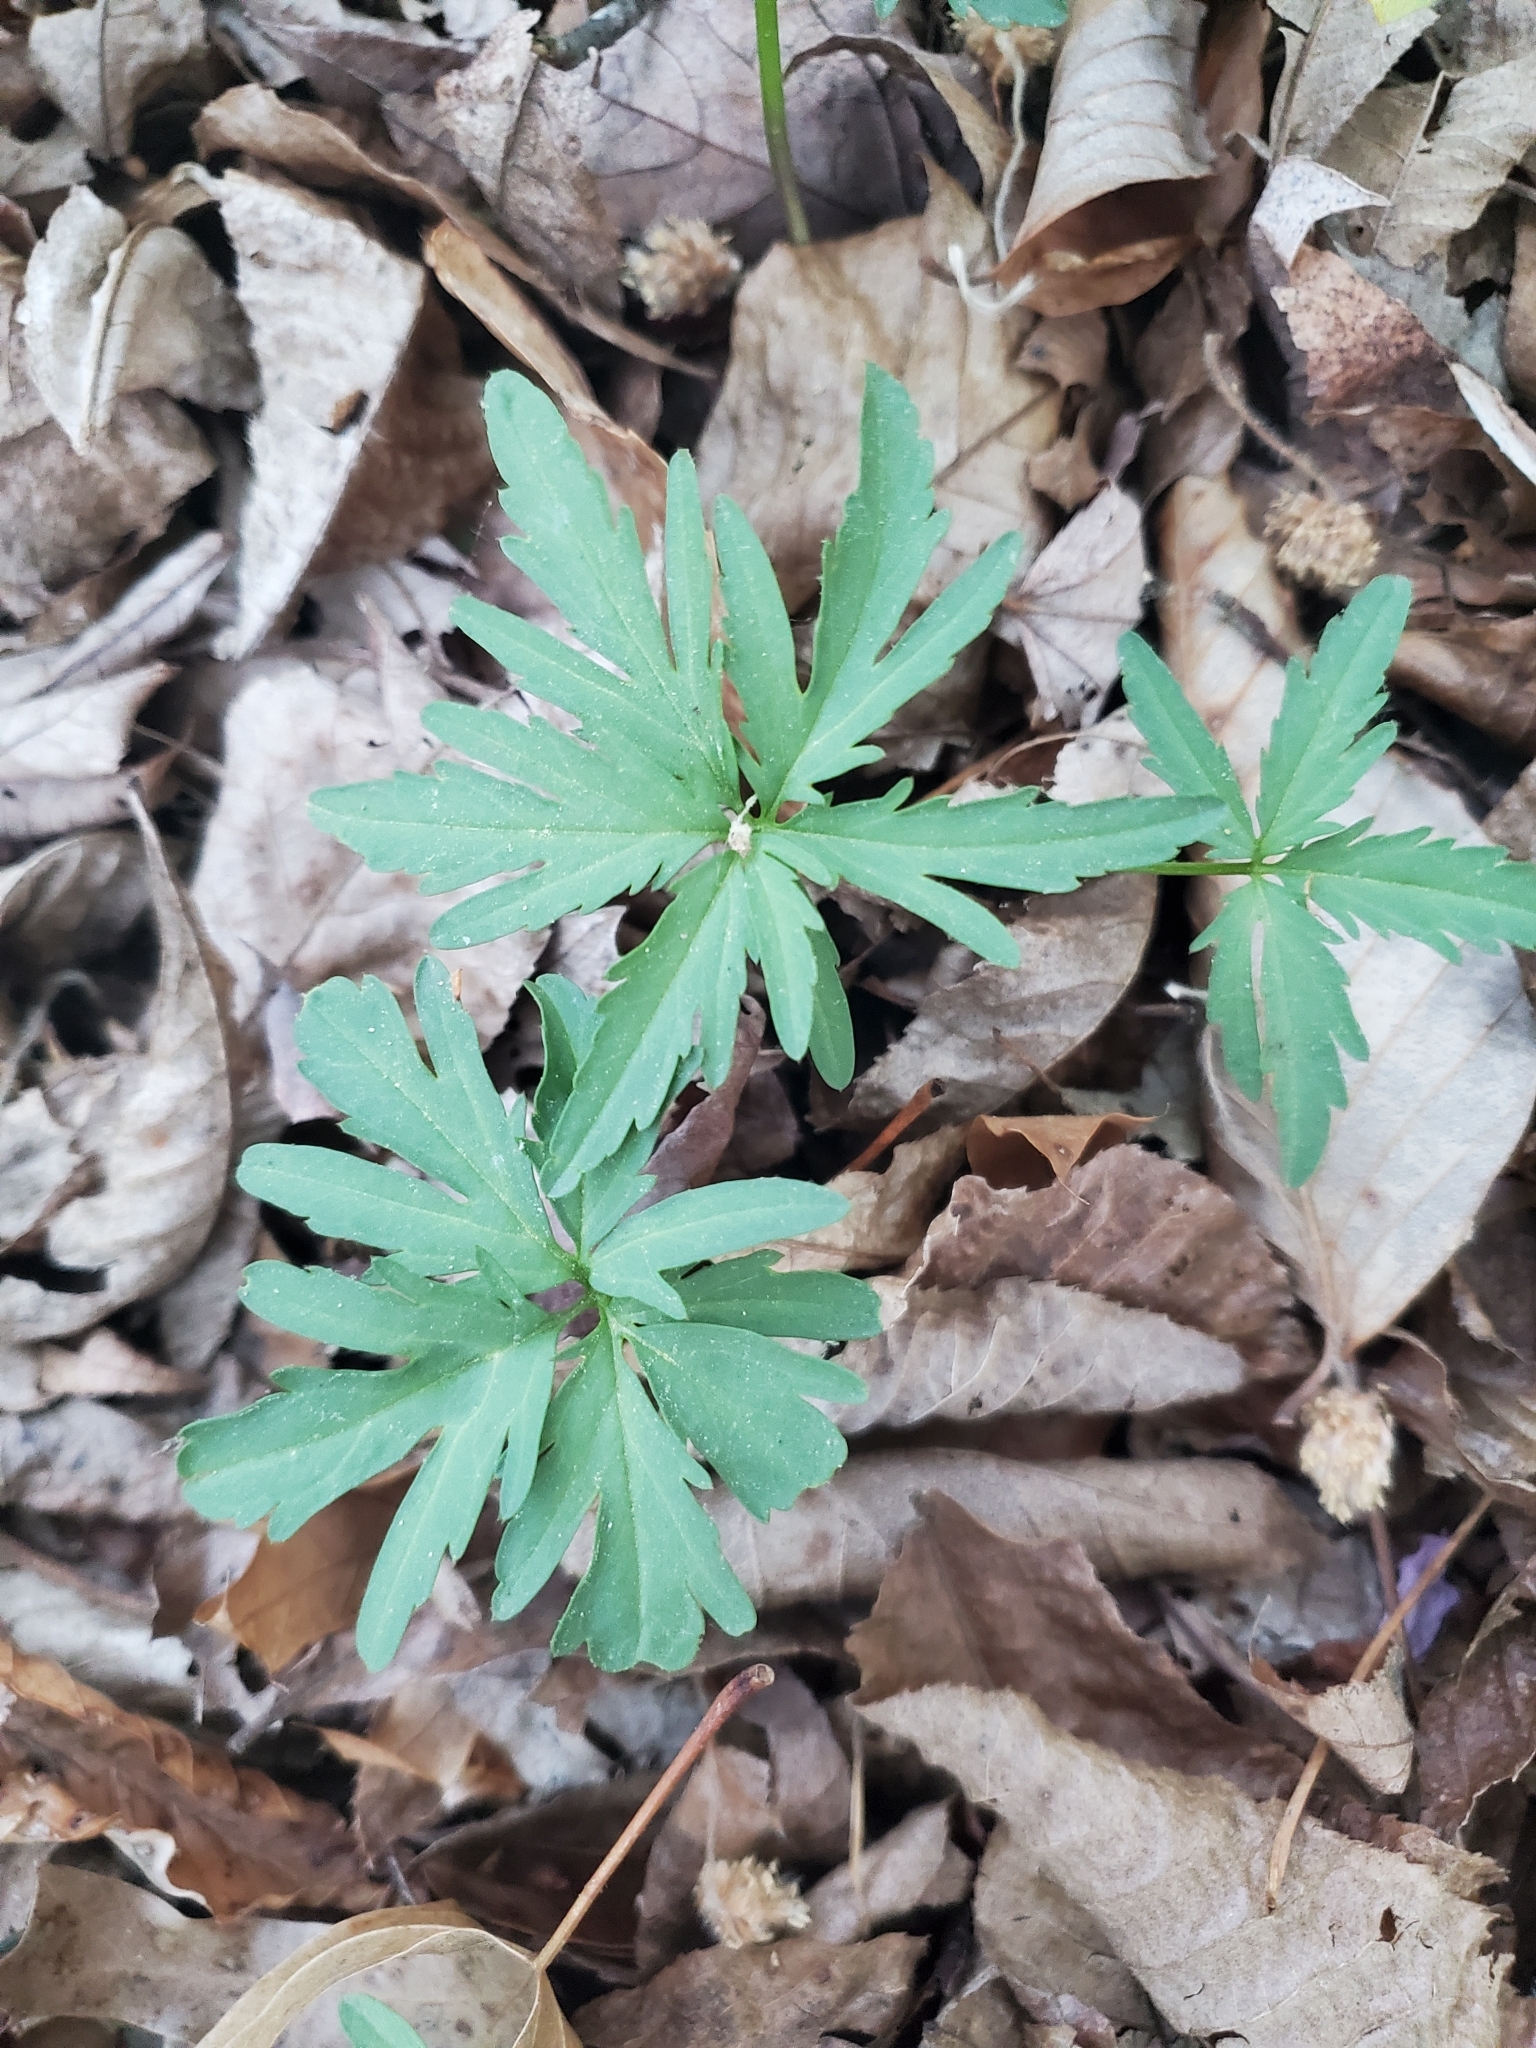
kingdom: Plantae
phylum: Tracheophyta
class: Magnoliopsida
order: Brassicales
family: Brassicaceae
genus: Cardamine
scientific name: Cardamine concatenata
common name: Cut-leaf toothcup
